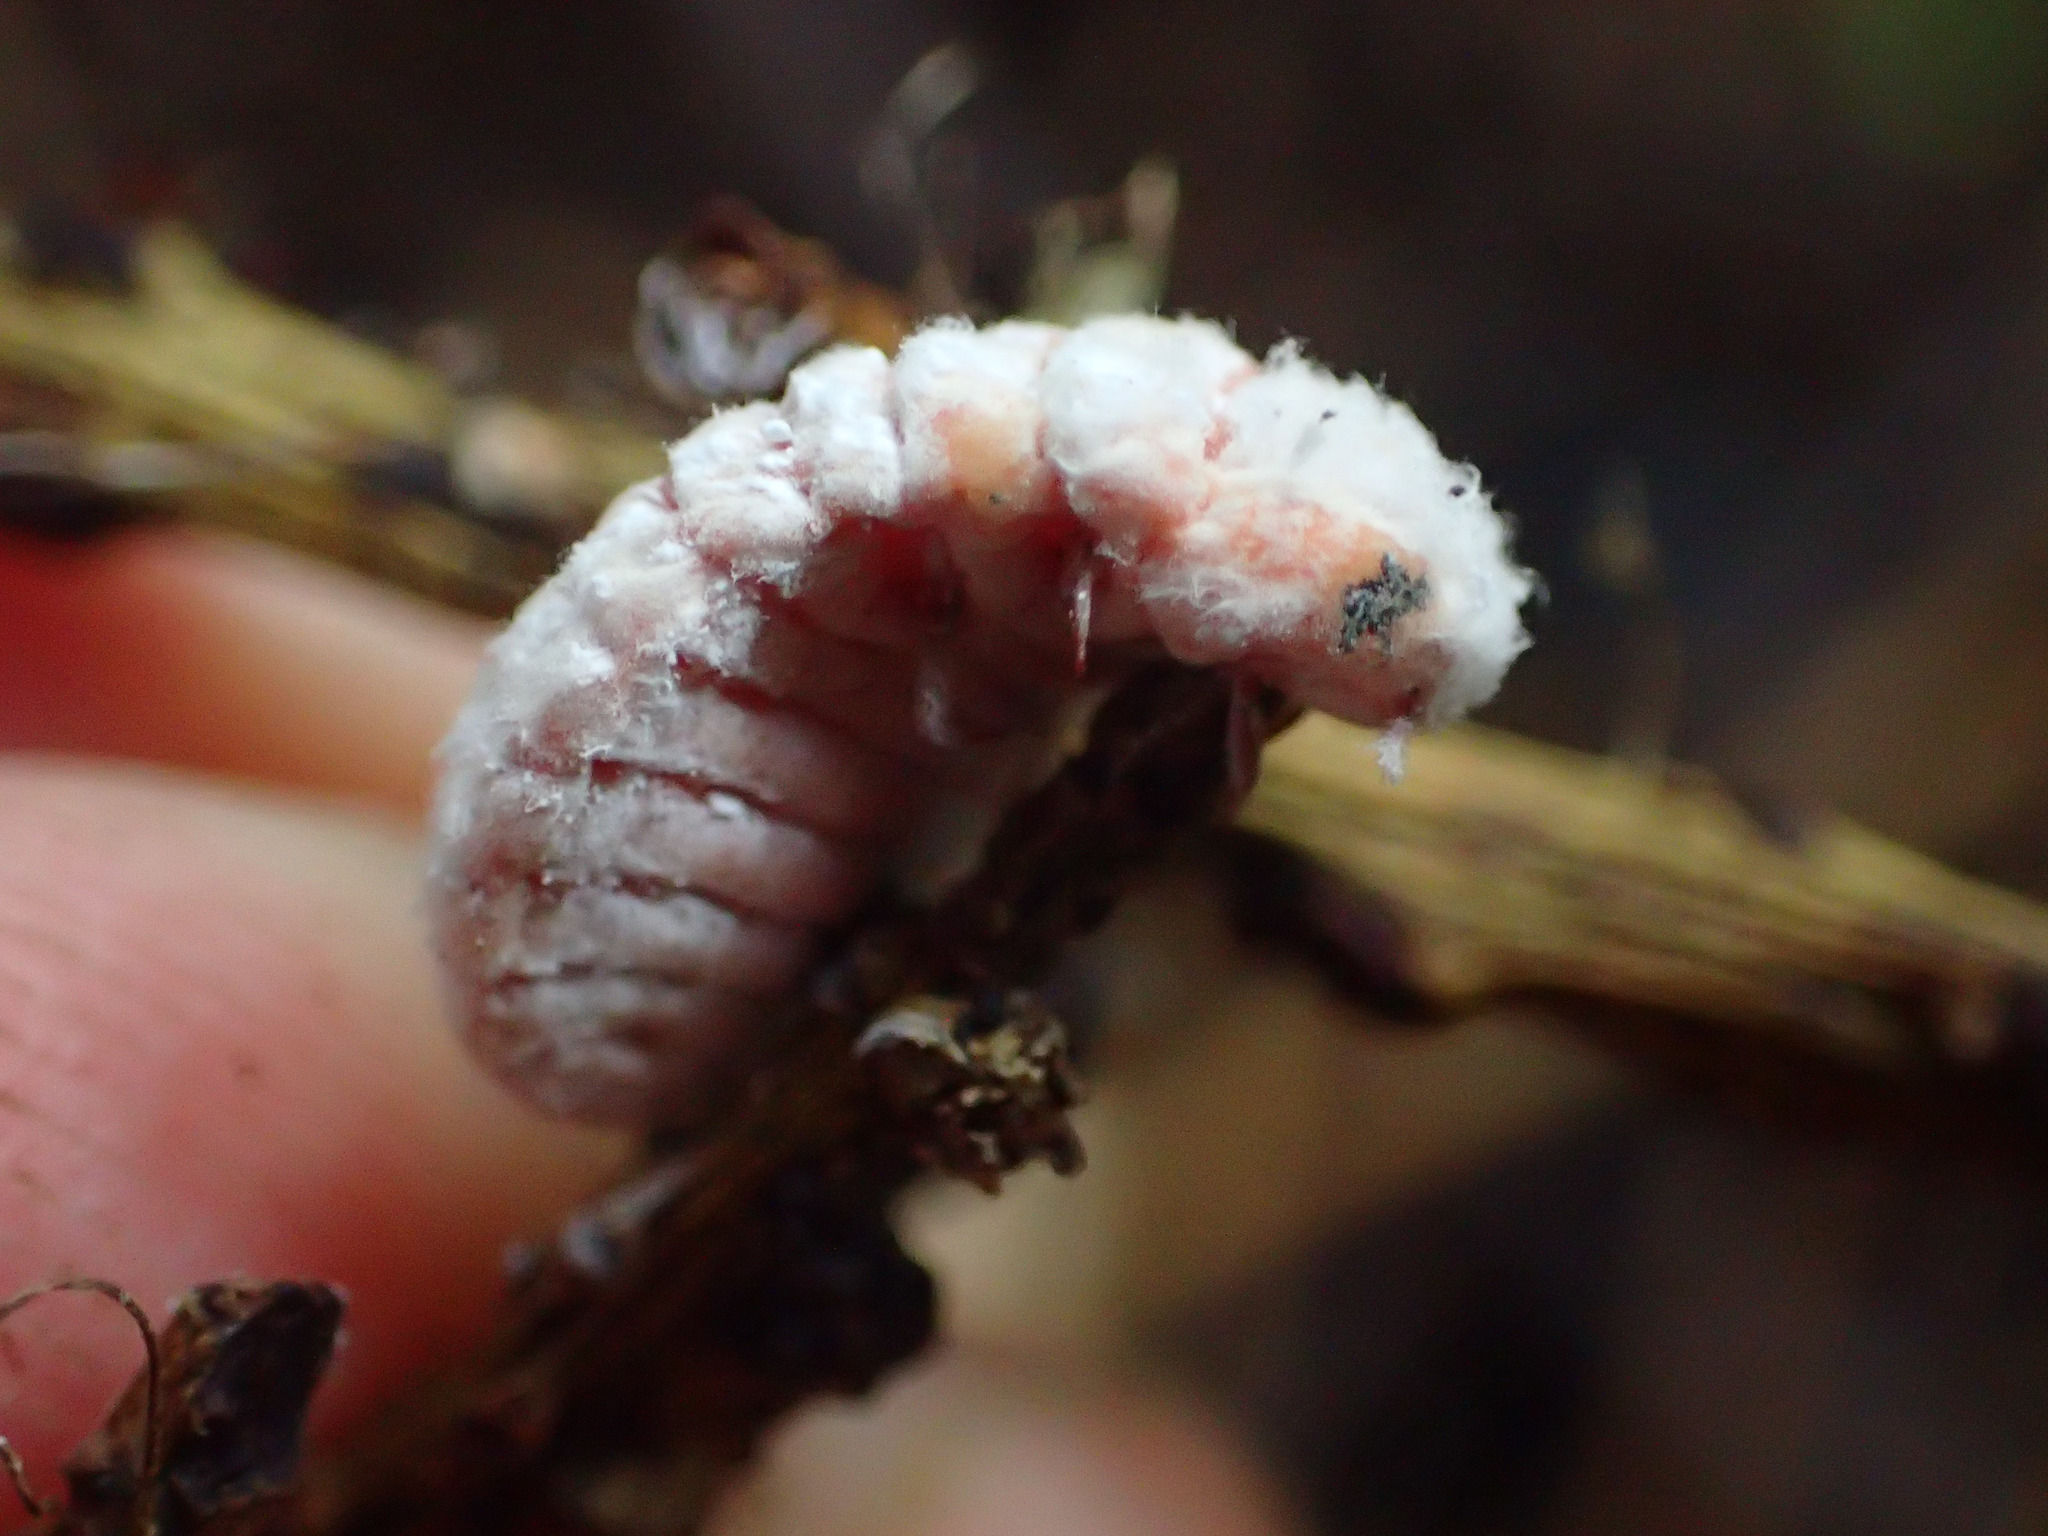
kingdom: Animalia
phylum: Arthropoda
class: Insecta
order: Hemiptera
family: Margarodidae
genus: Coelostomidia
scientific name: Coelostomidia zealandica
